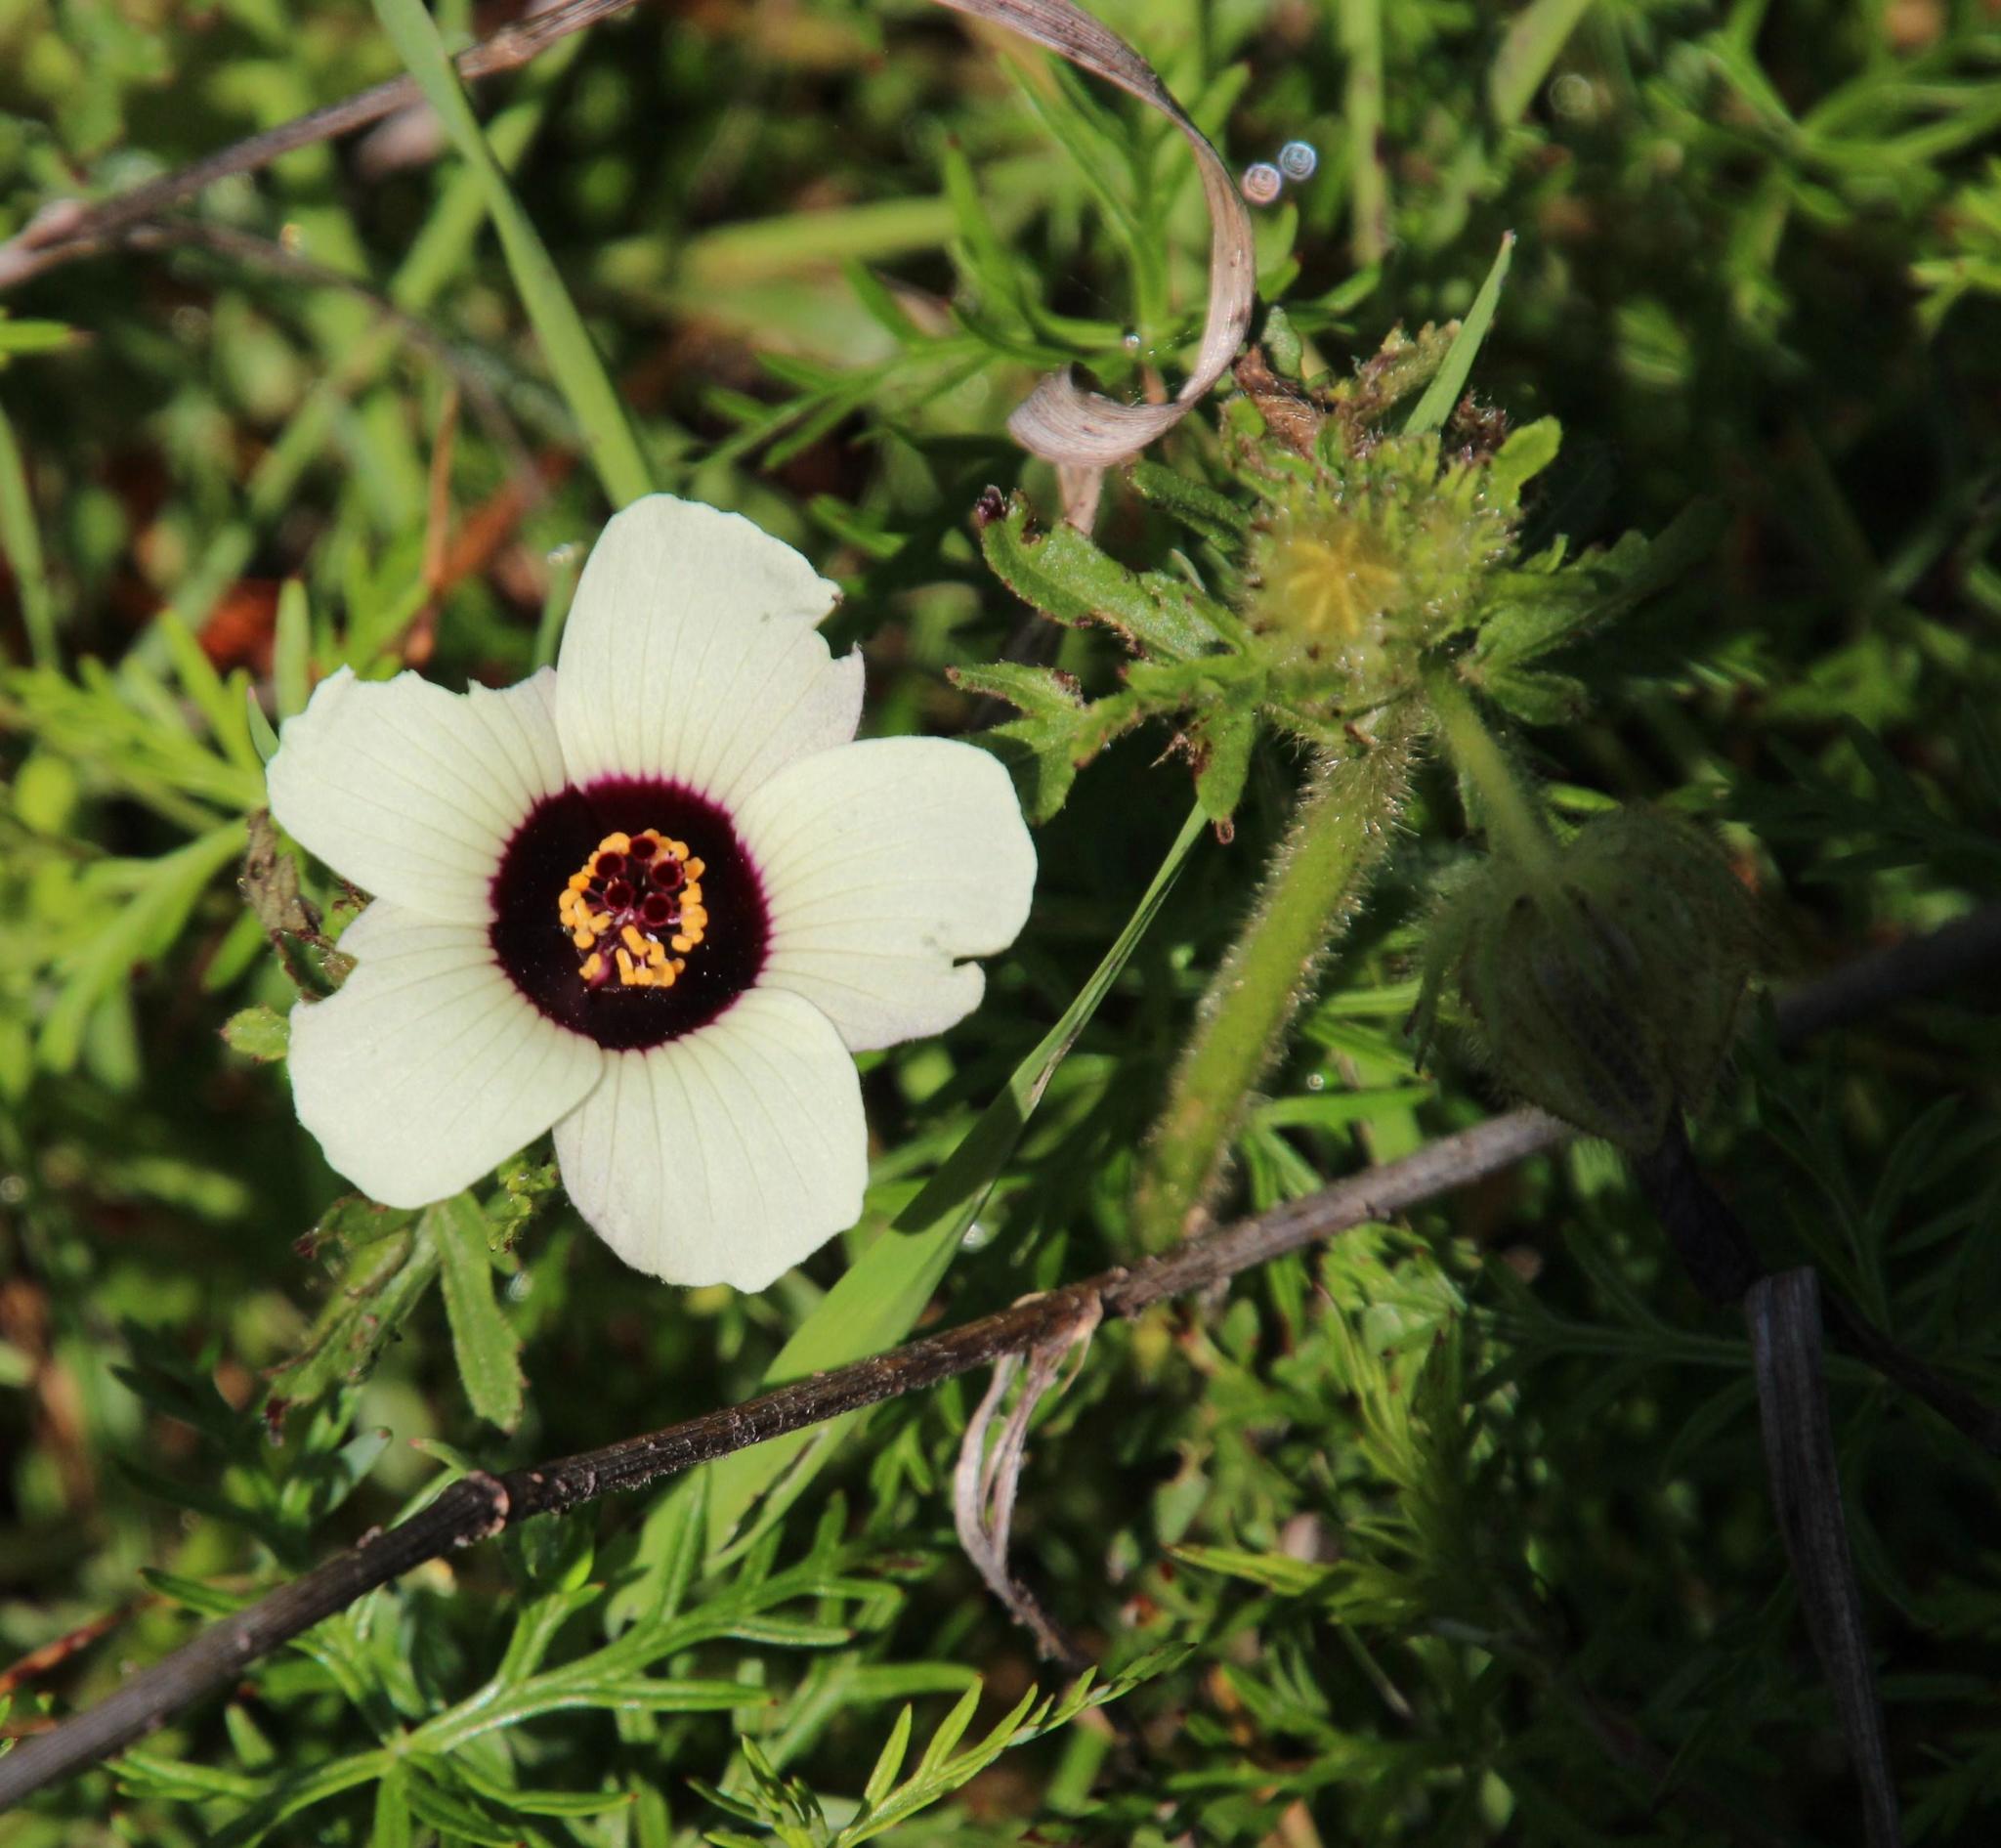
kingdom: Plantae
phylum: Tracheophyta
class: Magnoliopsida
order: Malvales
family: Malvaceae
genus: Hibiscus
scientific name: Hibiscus trionum
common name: Bladder ketmia
